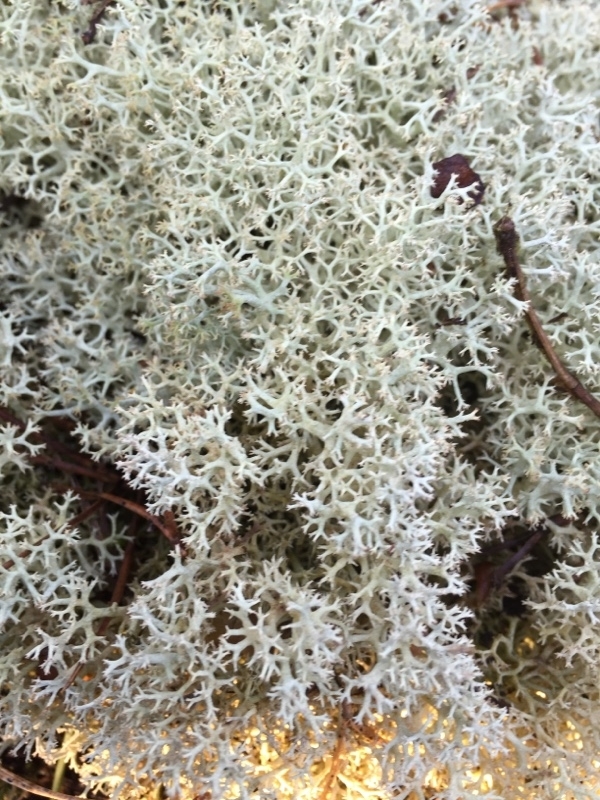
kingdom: Fungi
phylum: Ascomycota
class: Lecanoromycetes
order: Lecanorales
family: Cladoniaceae
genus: Cladonia
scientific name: Cladonia portentosa
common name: Reindeer lichen
